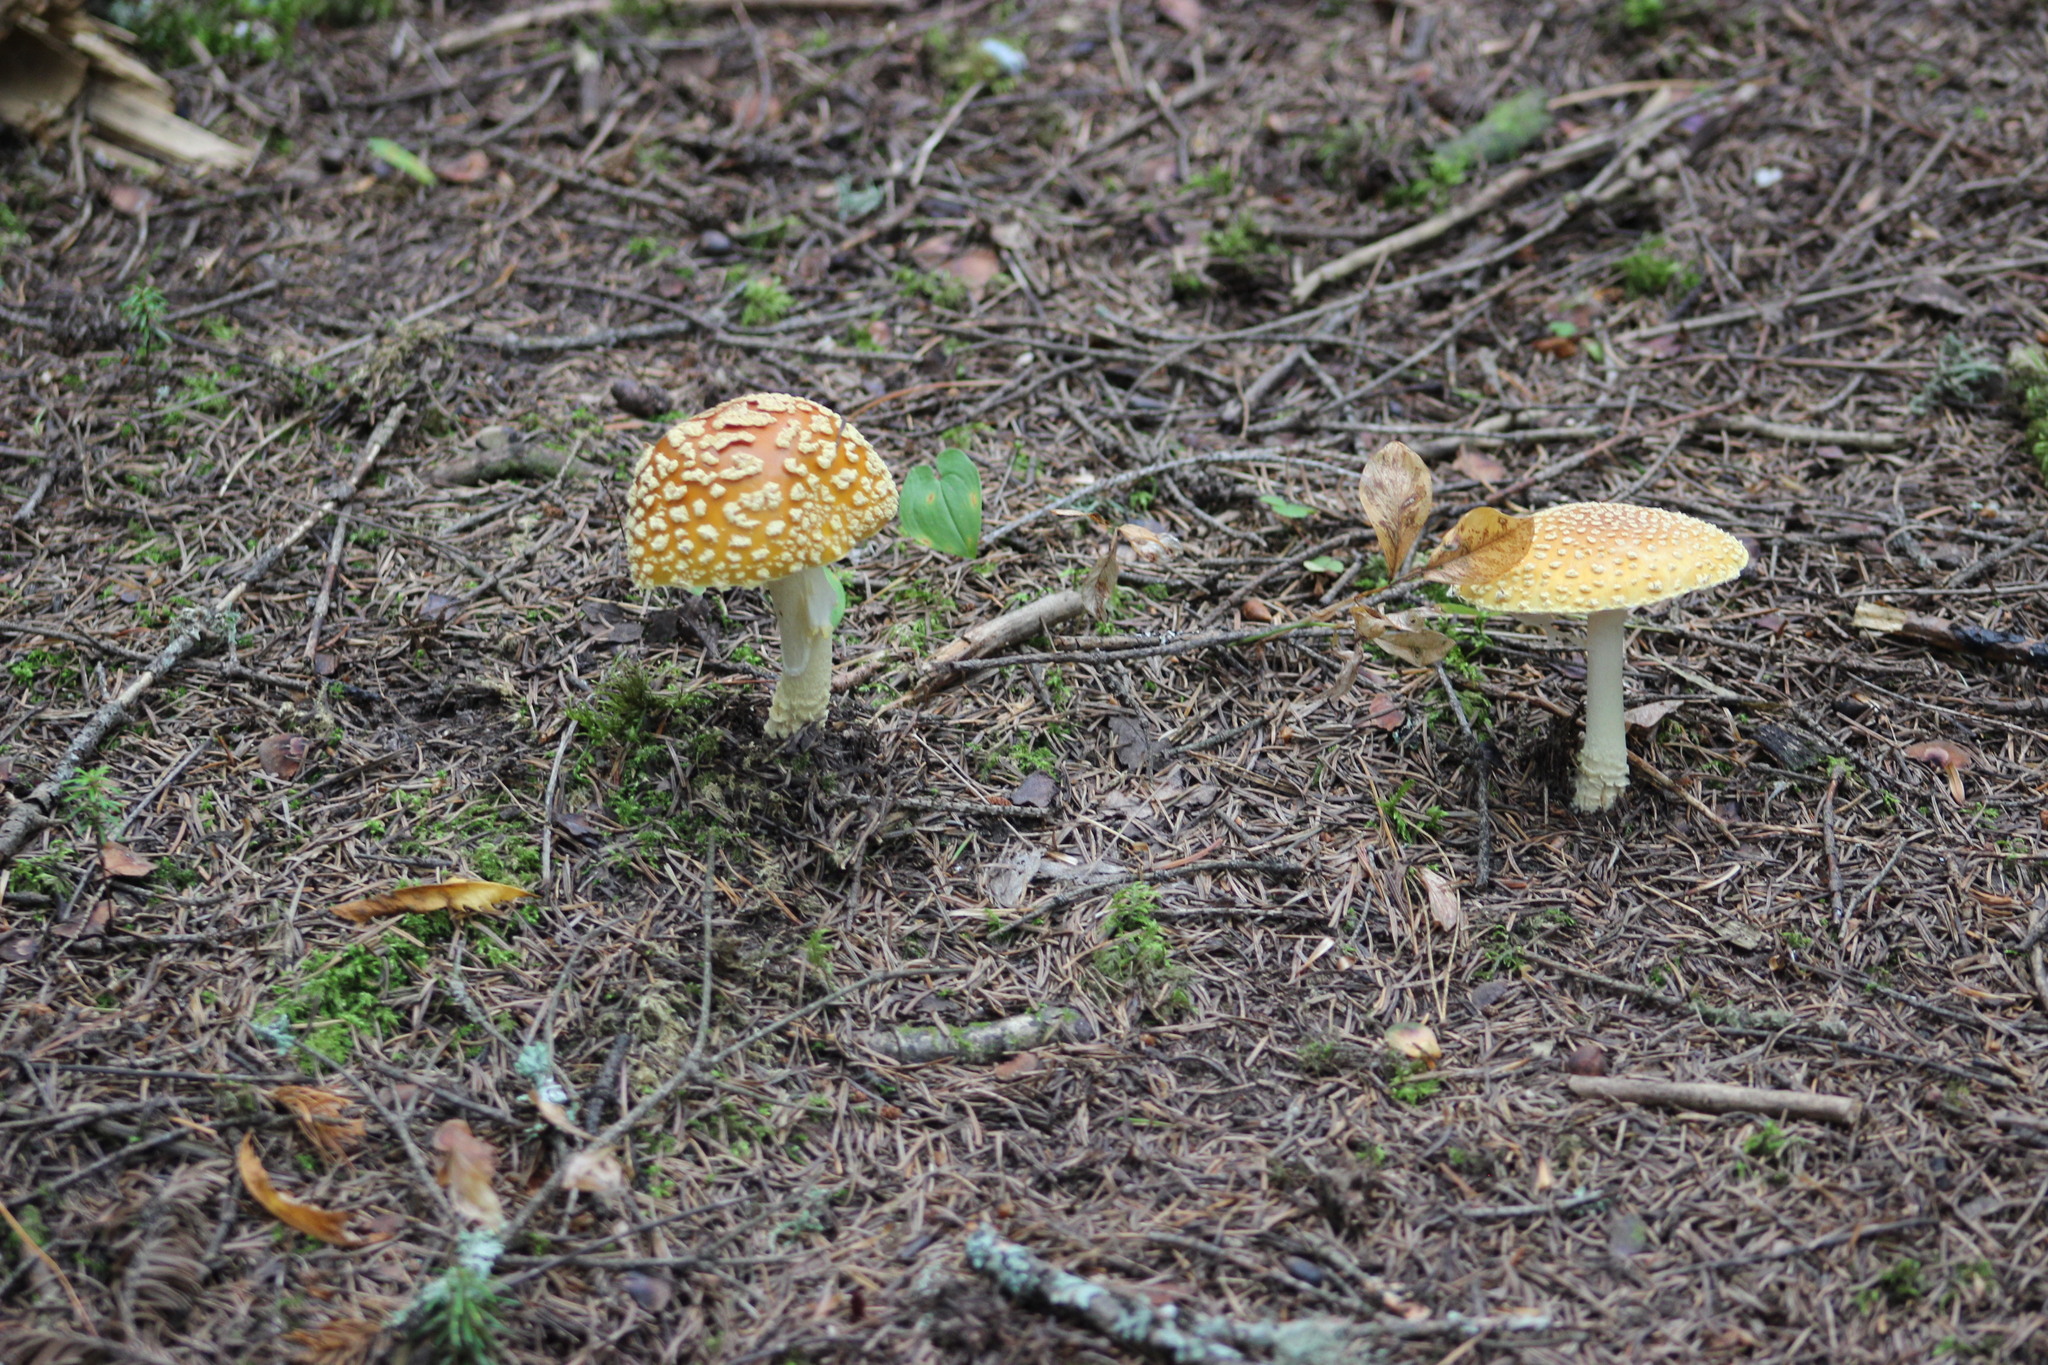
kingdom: Fungi
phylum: Basidiomycota
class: Agaricomycetes
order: Agaricales
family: Amanitaceae
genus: Amanita
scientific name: Amanita regalis
